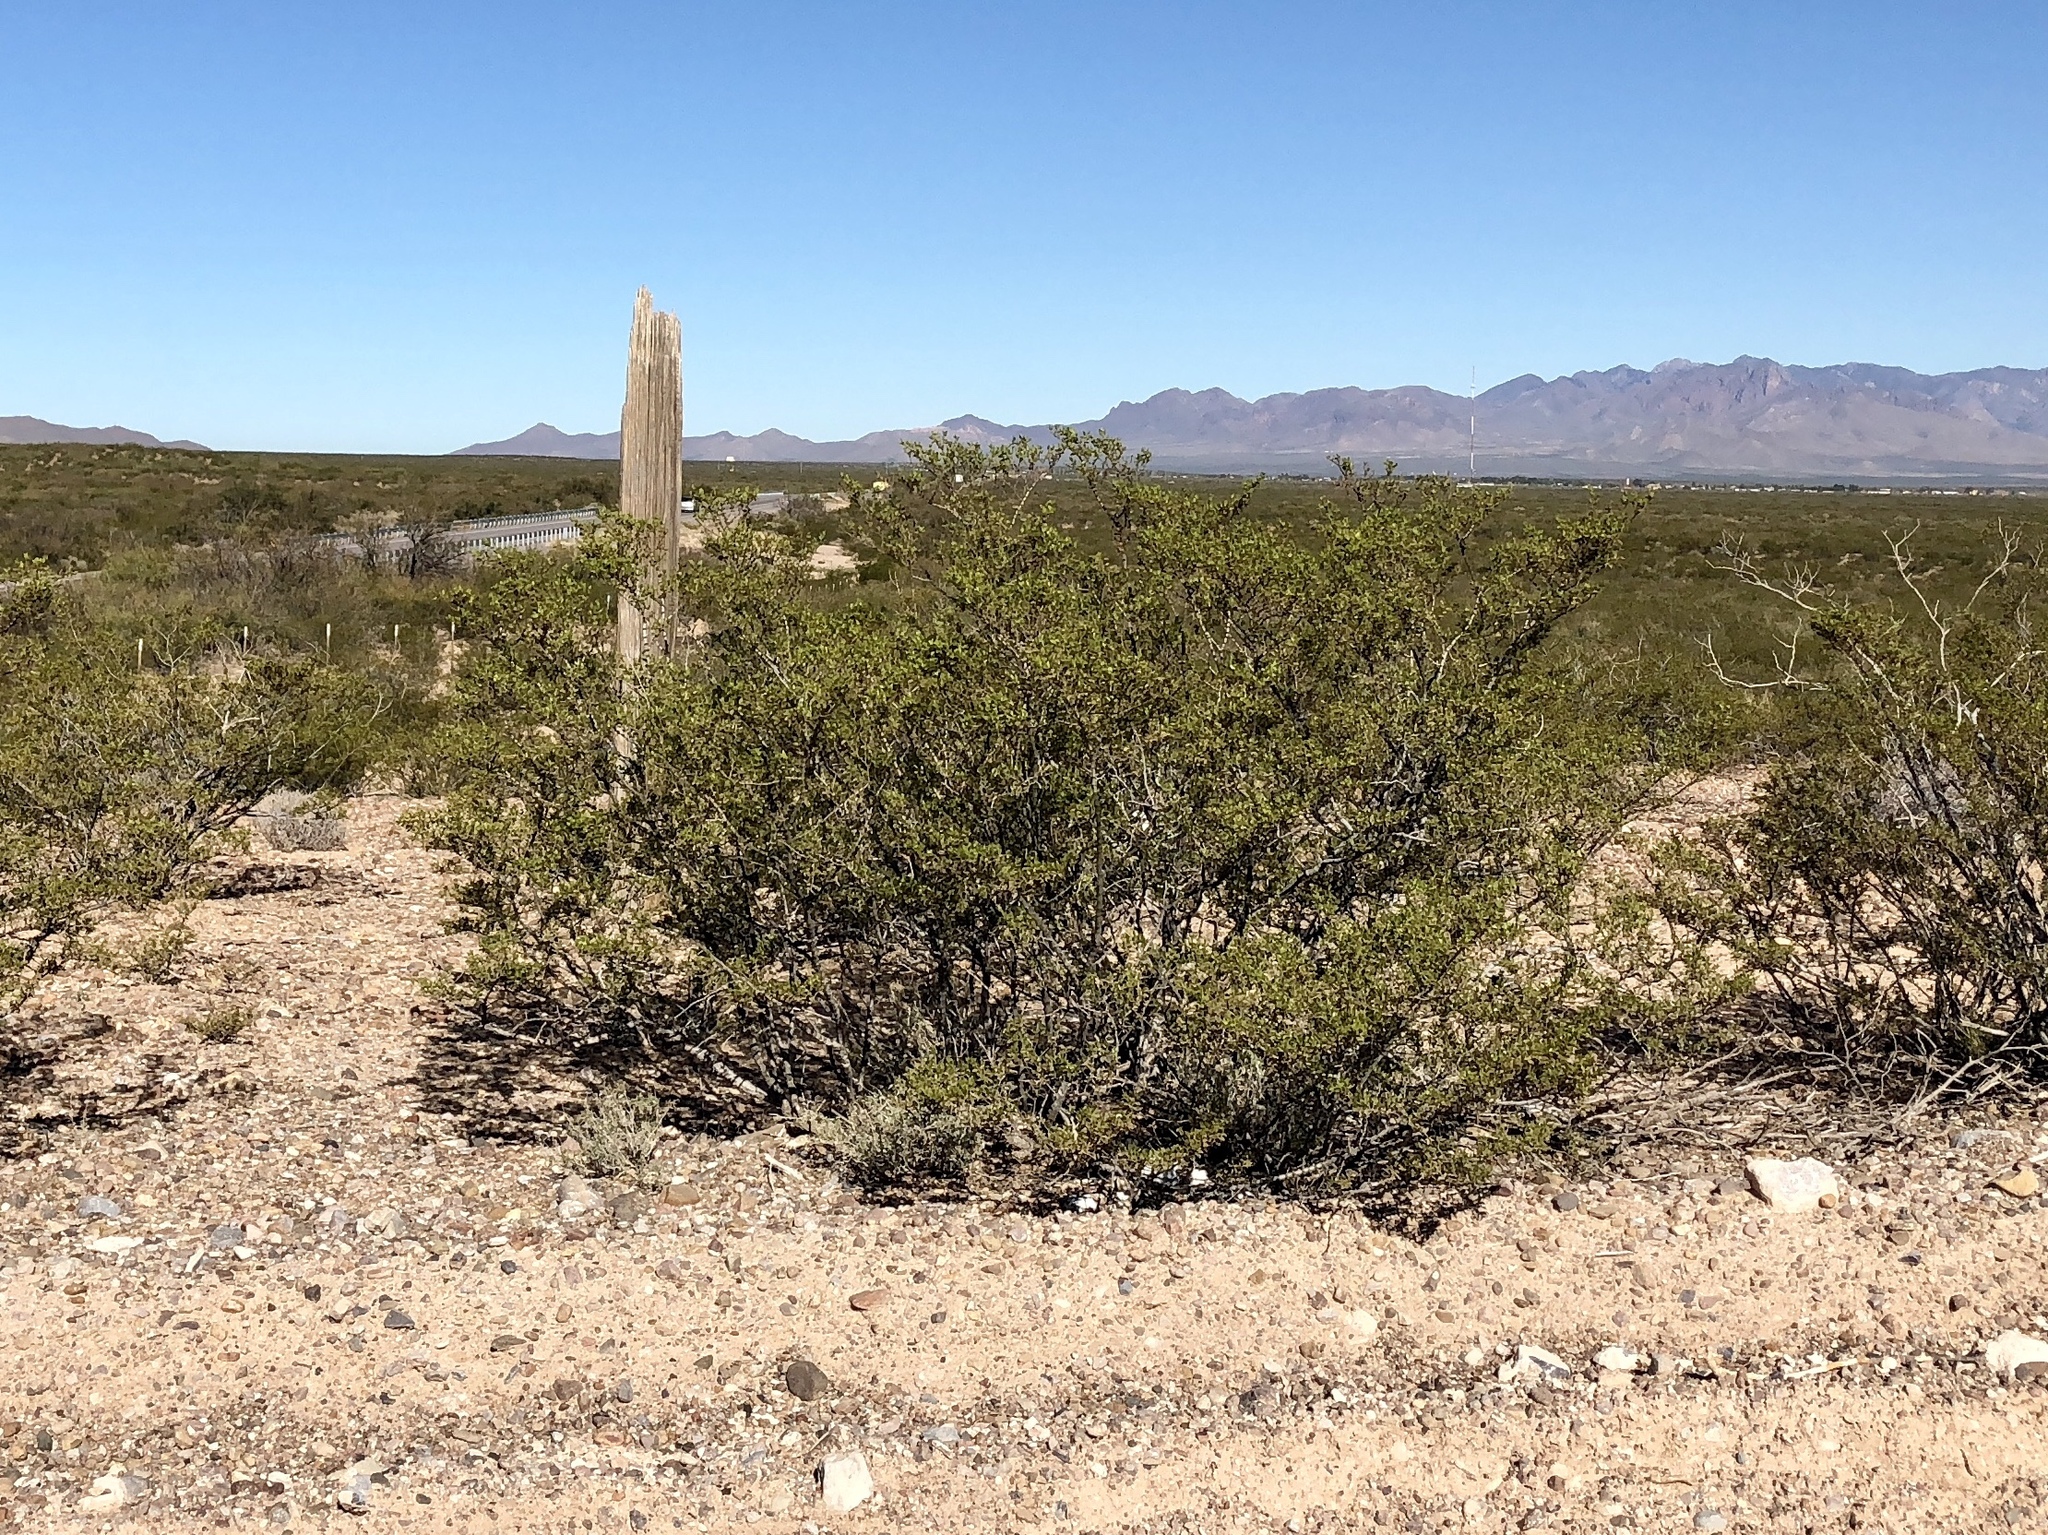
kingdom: Plantae
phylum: Tracheophyta
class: Magnoliopsida
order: Zygophyllales
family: Zygophyllaceae
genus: Larrea
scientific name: Larrea tridentata
